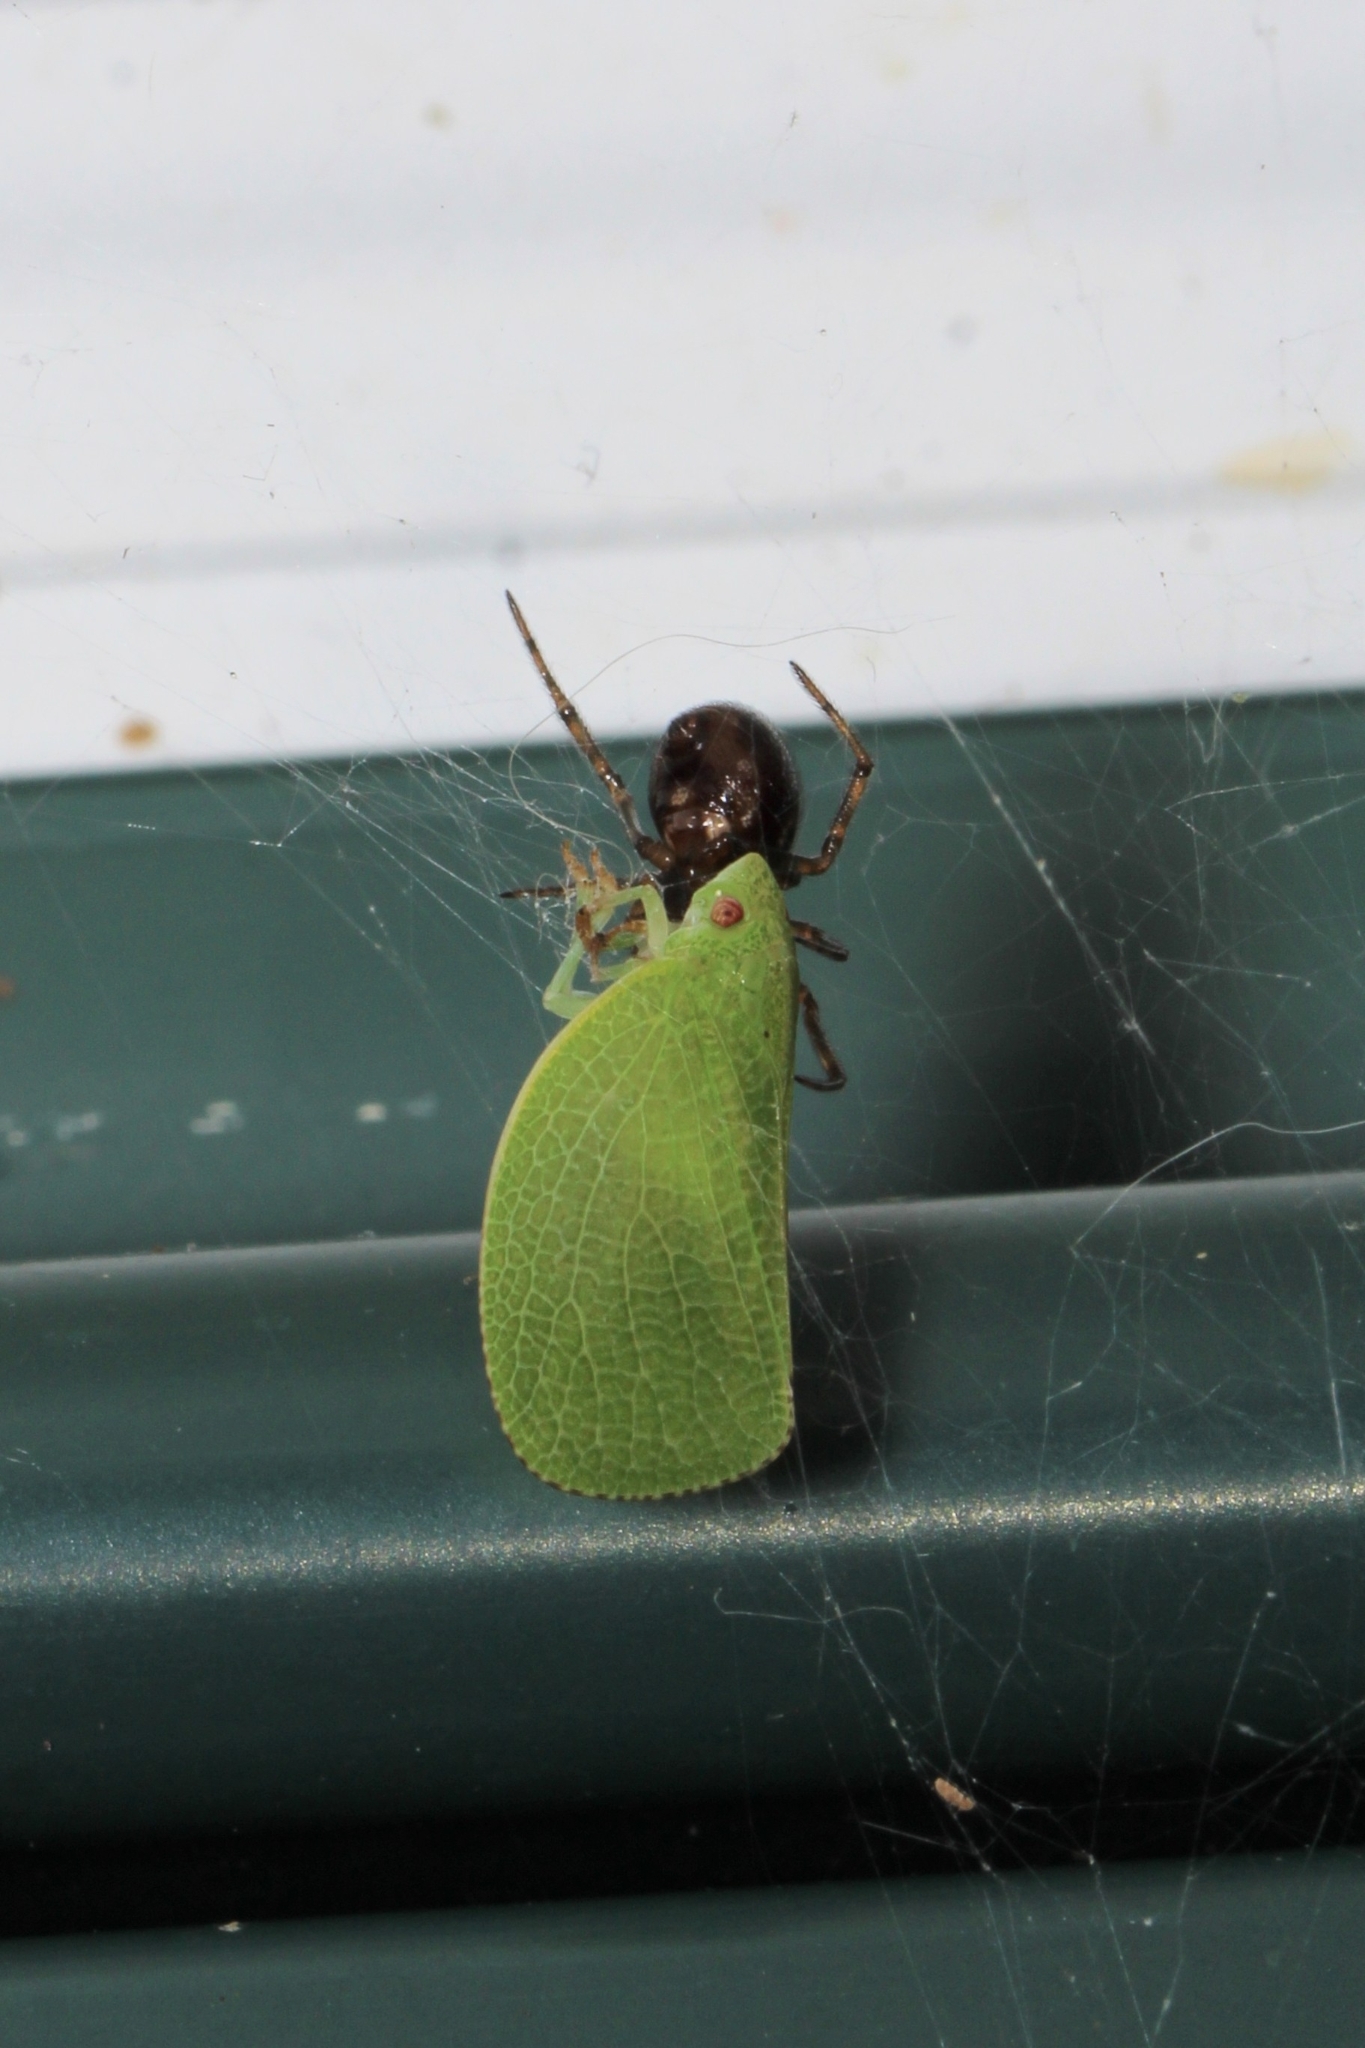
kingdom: Animalia
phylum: Arthropoda
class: Insecta
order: Hemiptera
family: Acanaloniidae
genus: Acanalonia
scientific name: Acanalonia conica
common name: Green cone-headed planthopper
